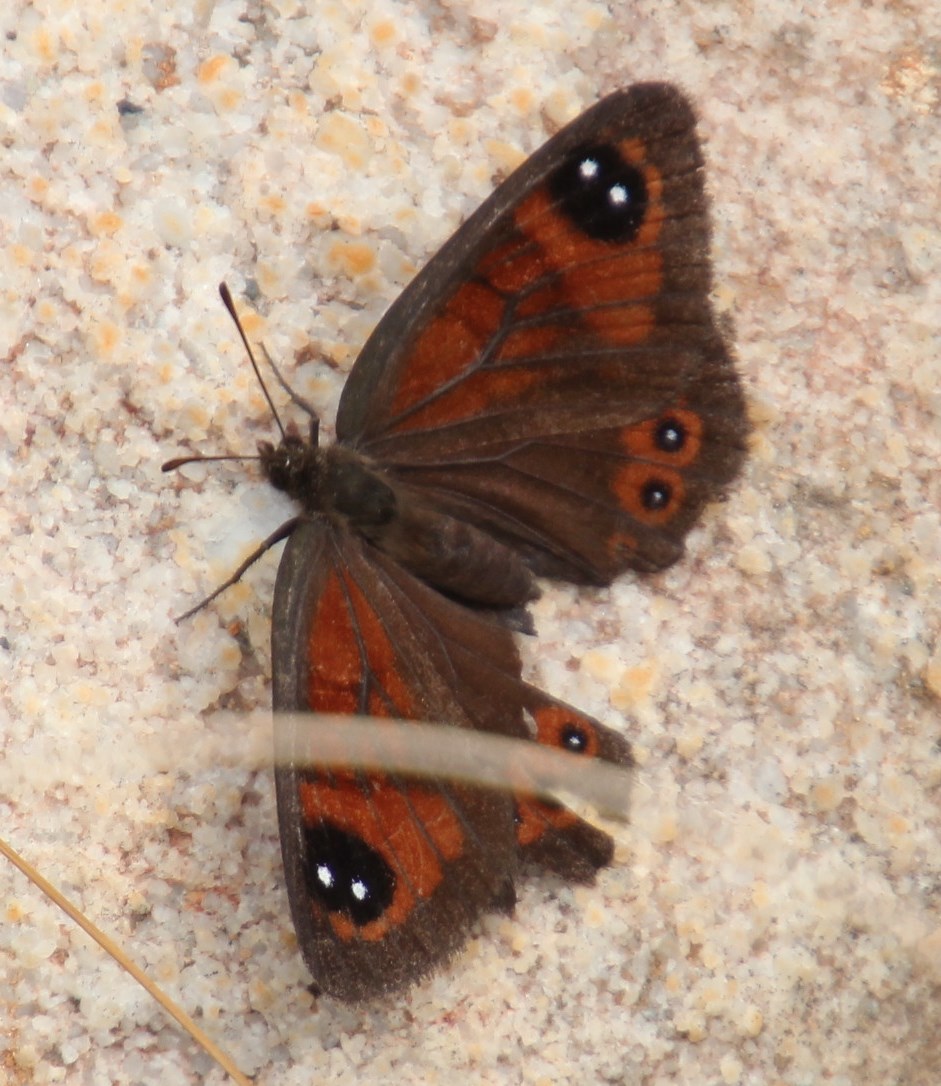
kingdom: Animalia
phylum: Arthropoda
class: Insecta
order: Lepidoptera
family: Nymphalidae
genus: Tarsocera
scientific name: Tarsocera cassus
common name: Spring widow
